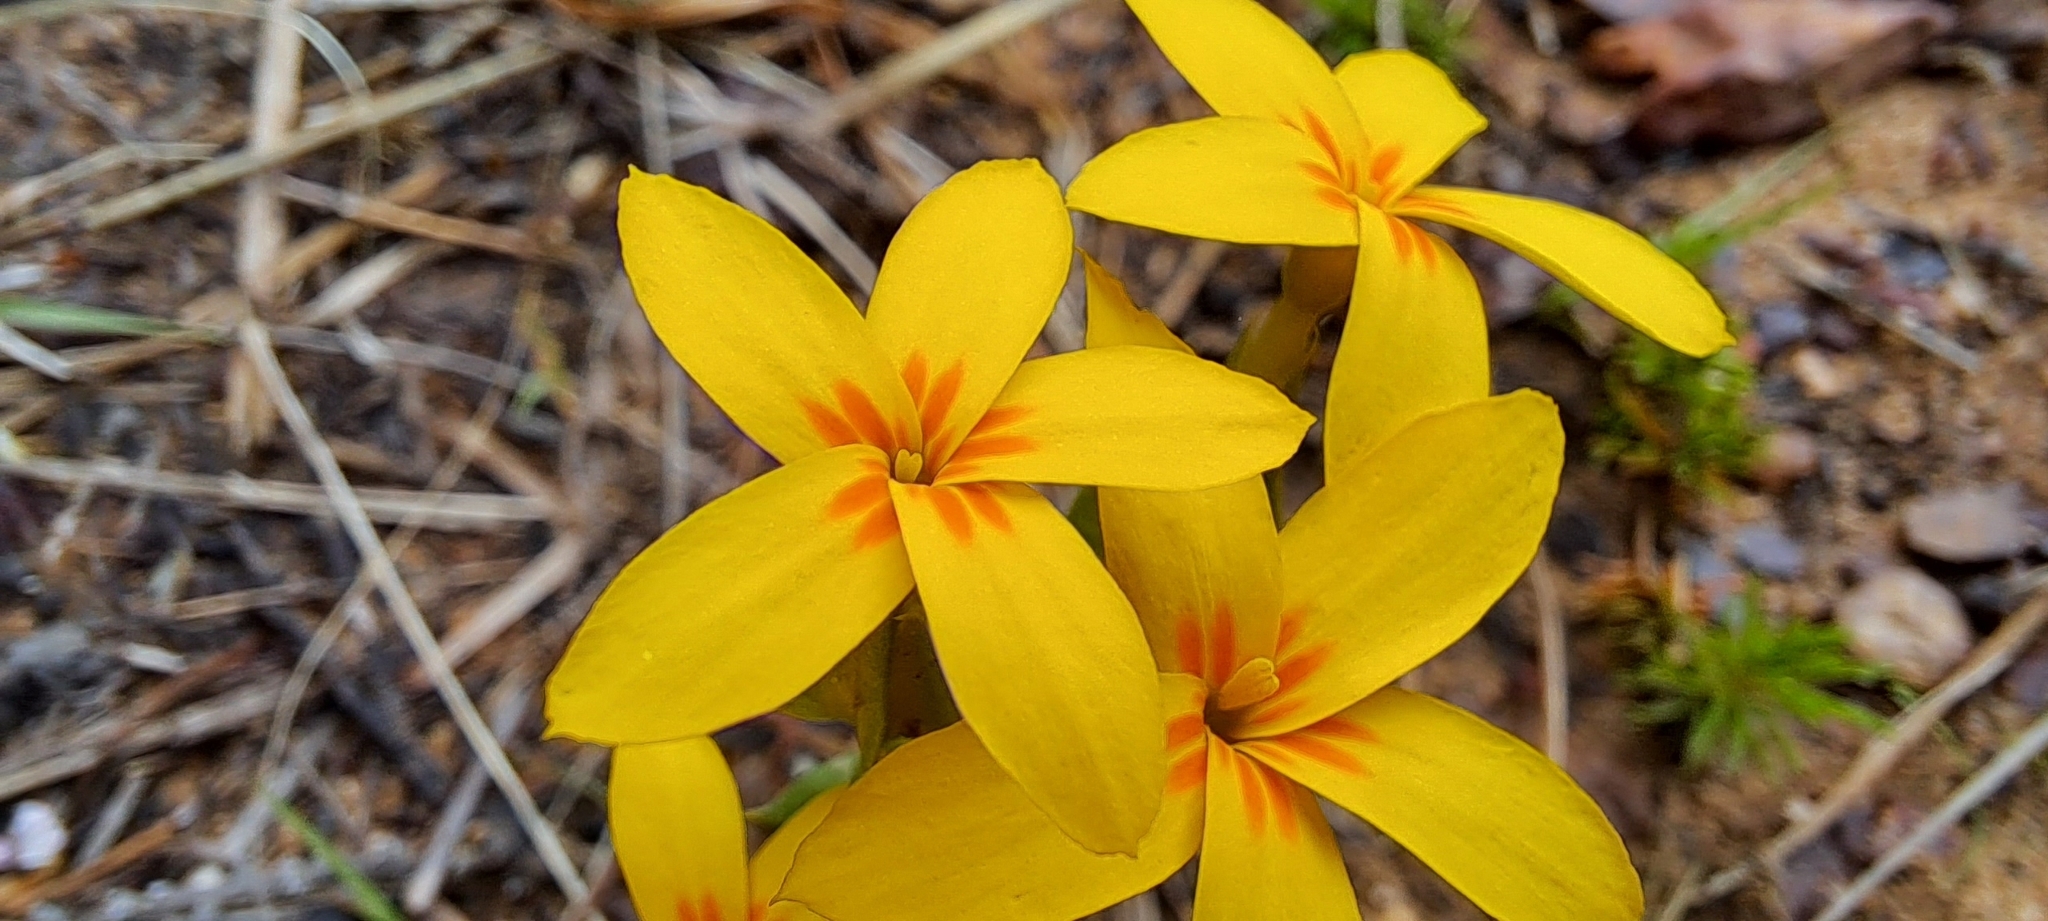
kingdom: Plantae
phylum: Tracheophyta
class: Magnoliopsida
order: Gentianales
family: Gentianaceae
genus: Sebaea
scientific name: Sebaea exacoides
